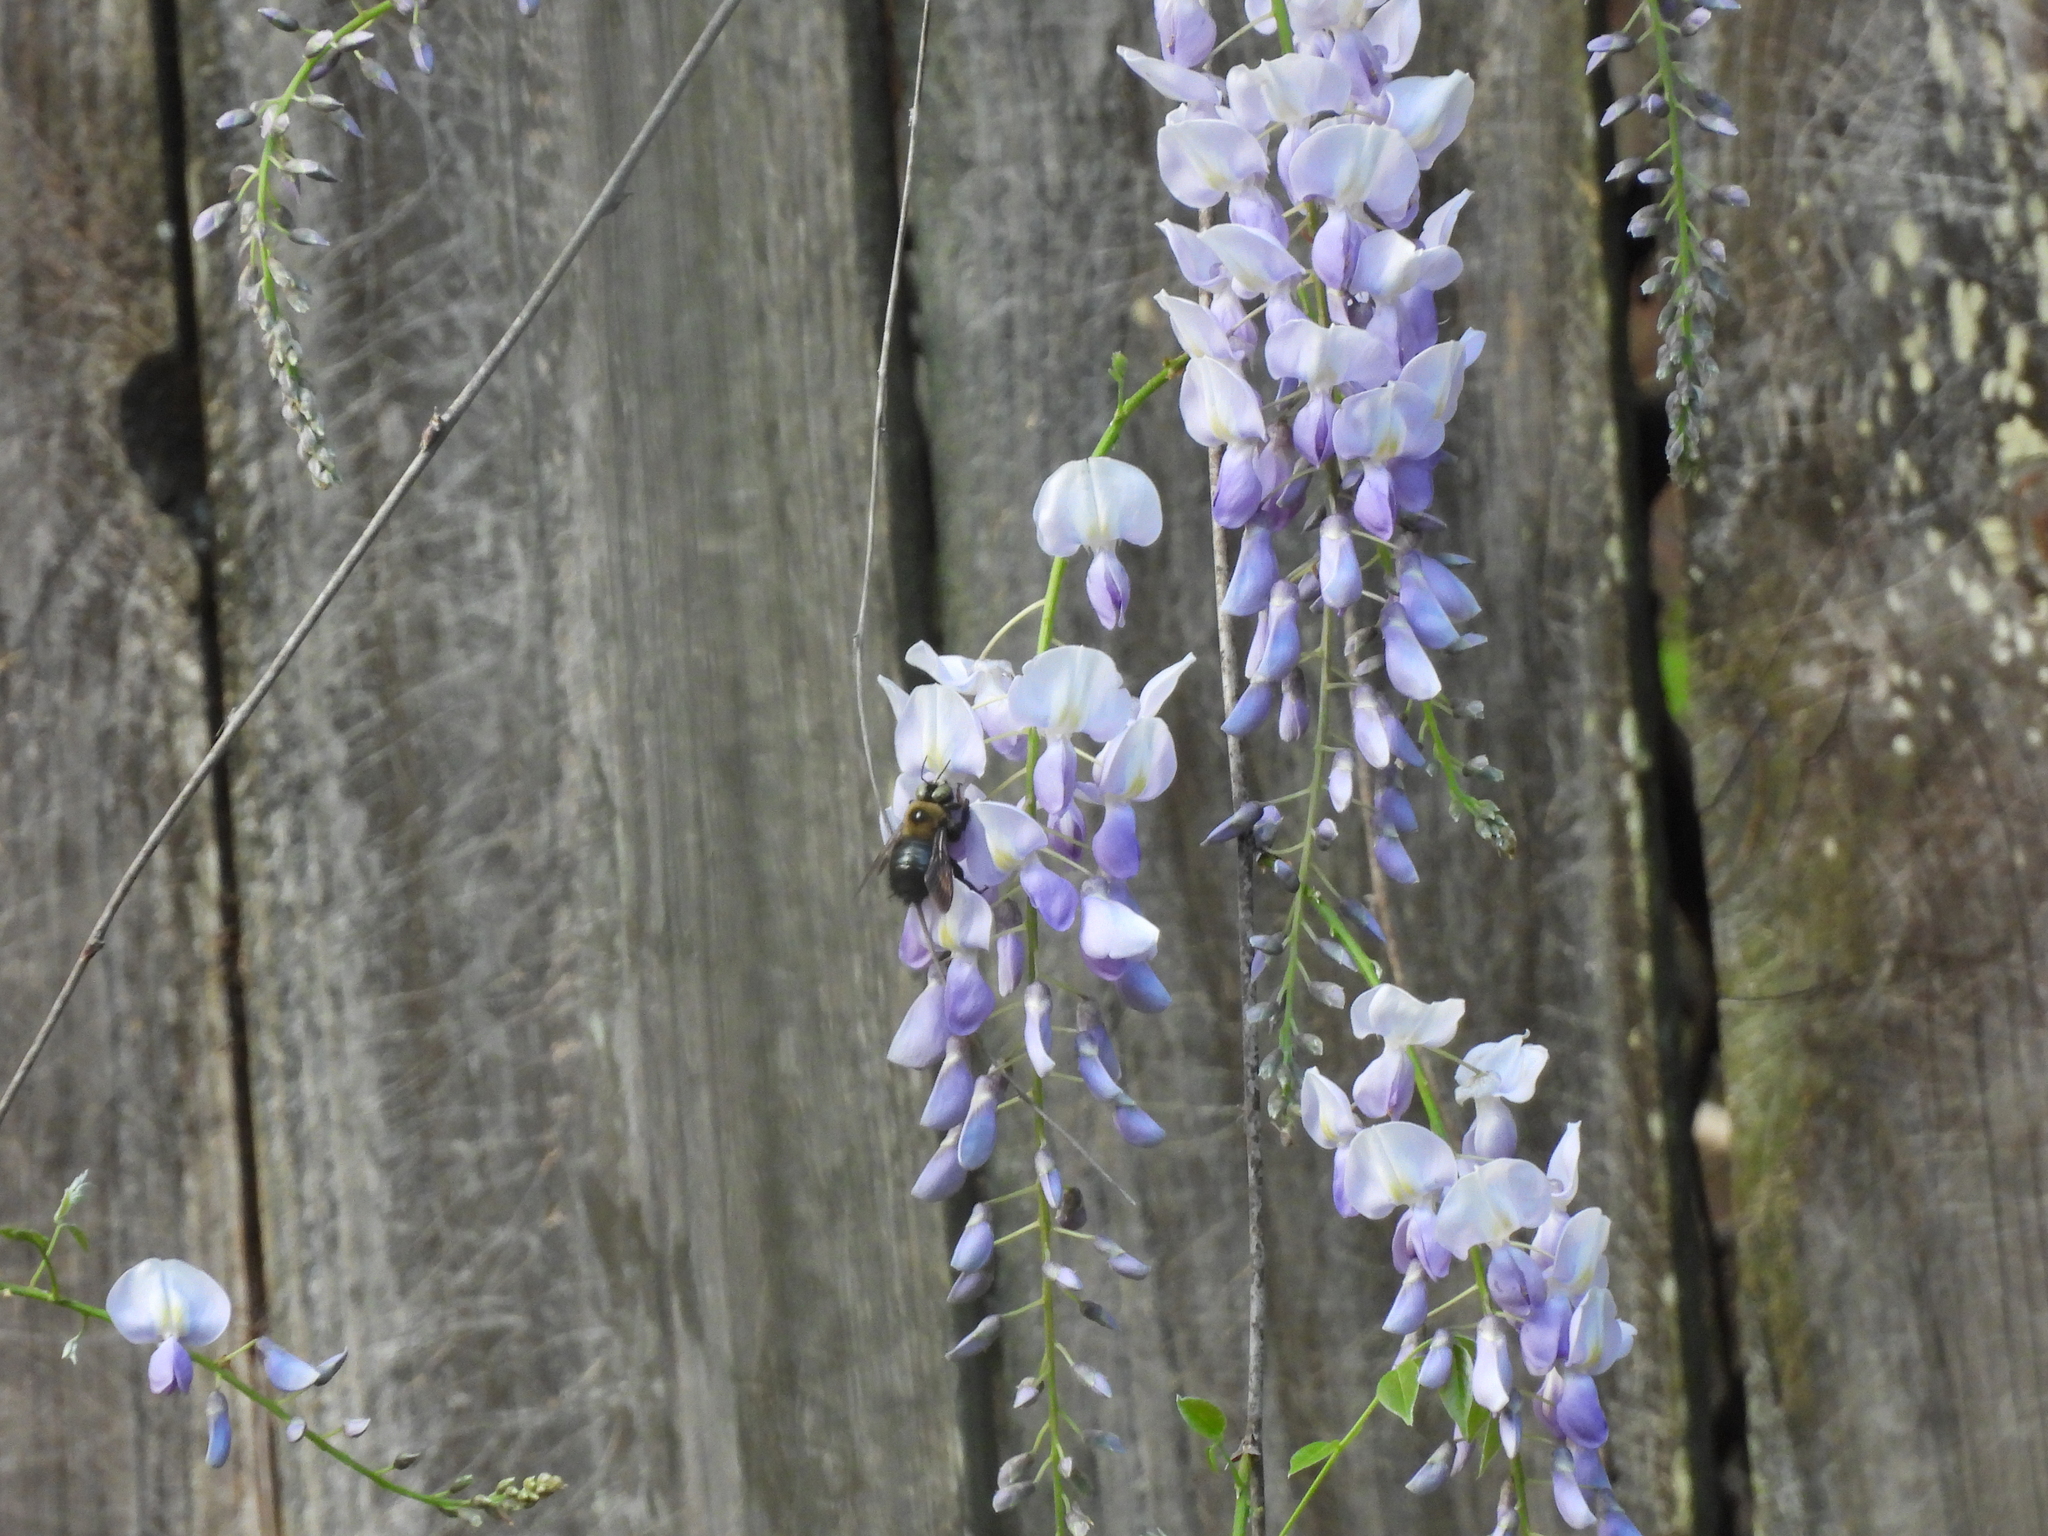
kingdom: Animalia
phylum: Arthropoda
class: Insecta
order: Hymenoptera
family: Apidae
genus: Xylocopa
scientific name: Xylocopa virginica
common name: Carpenter bee
